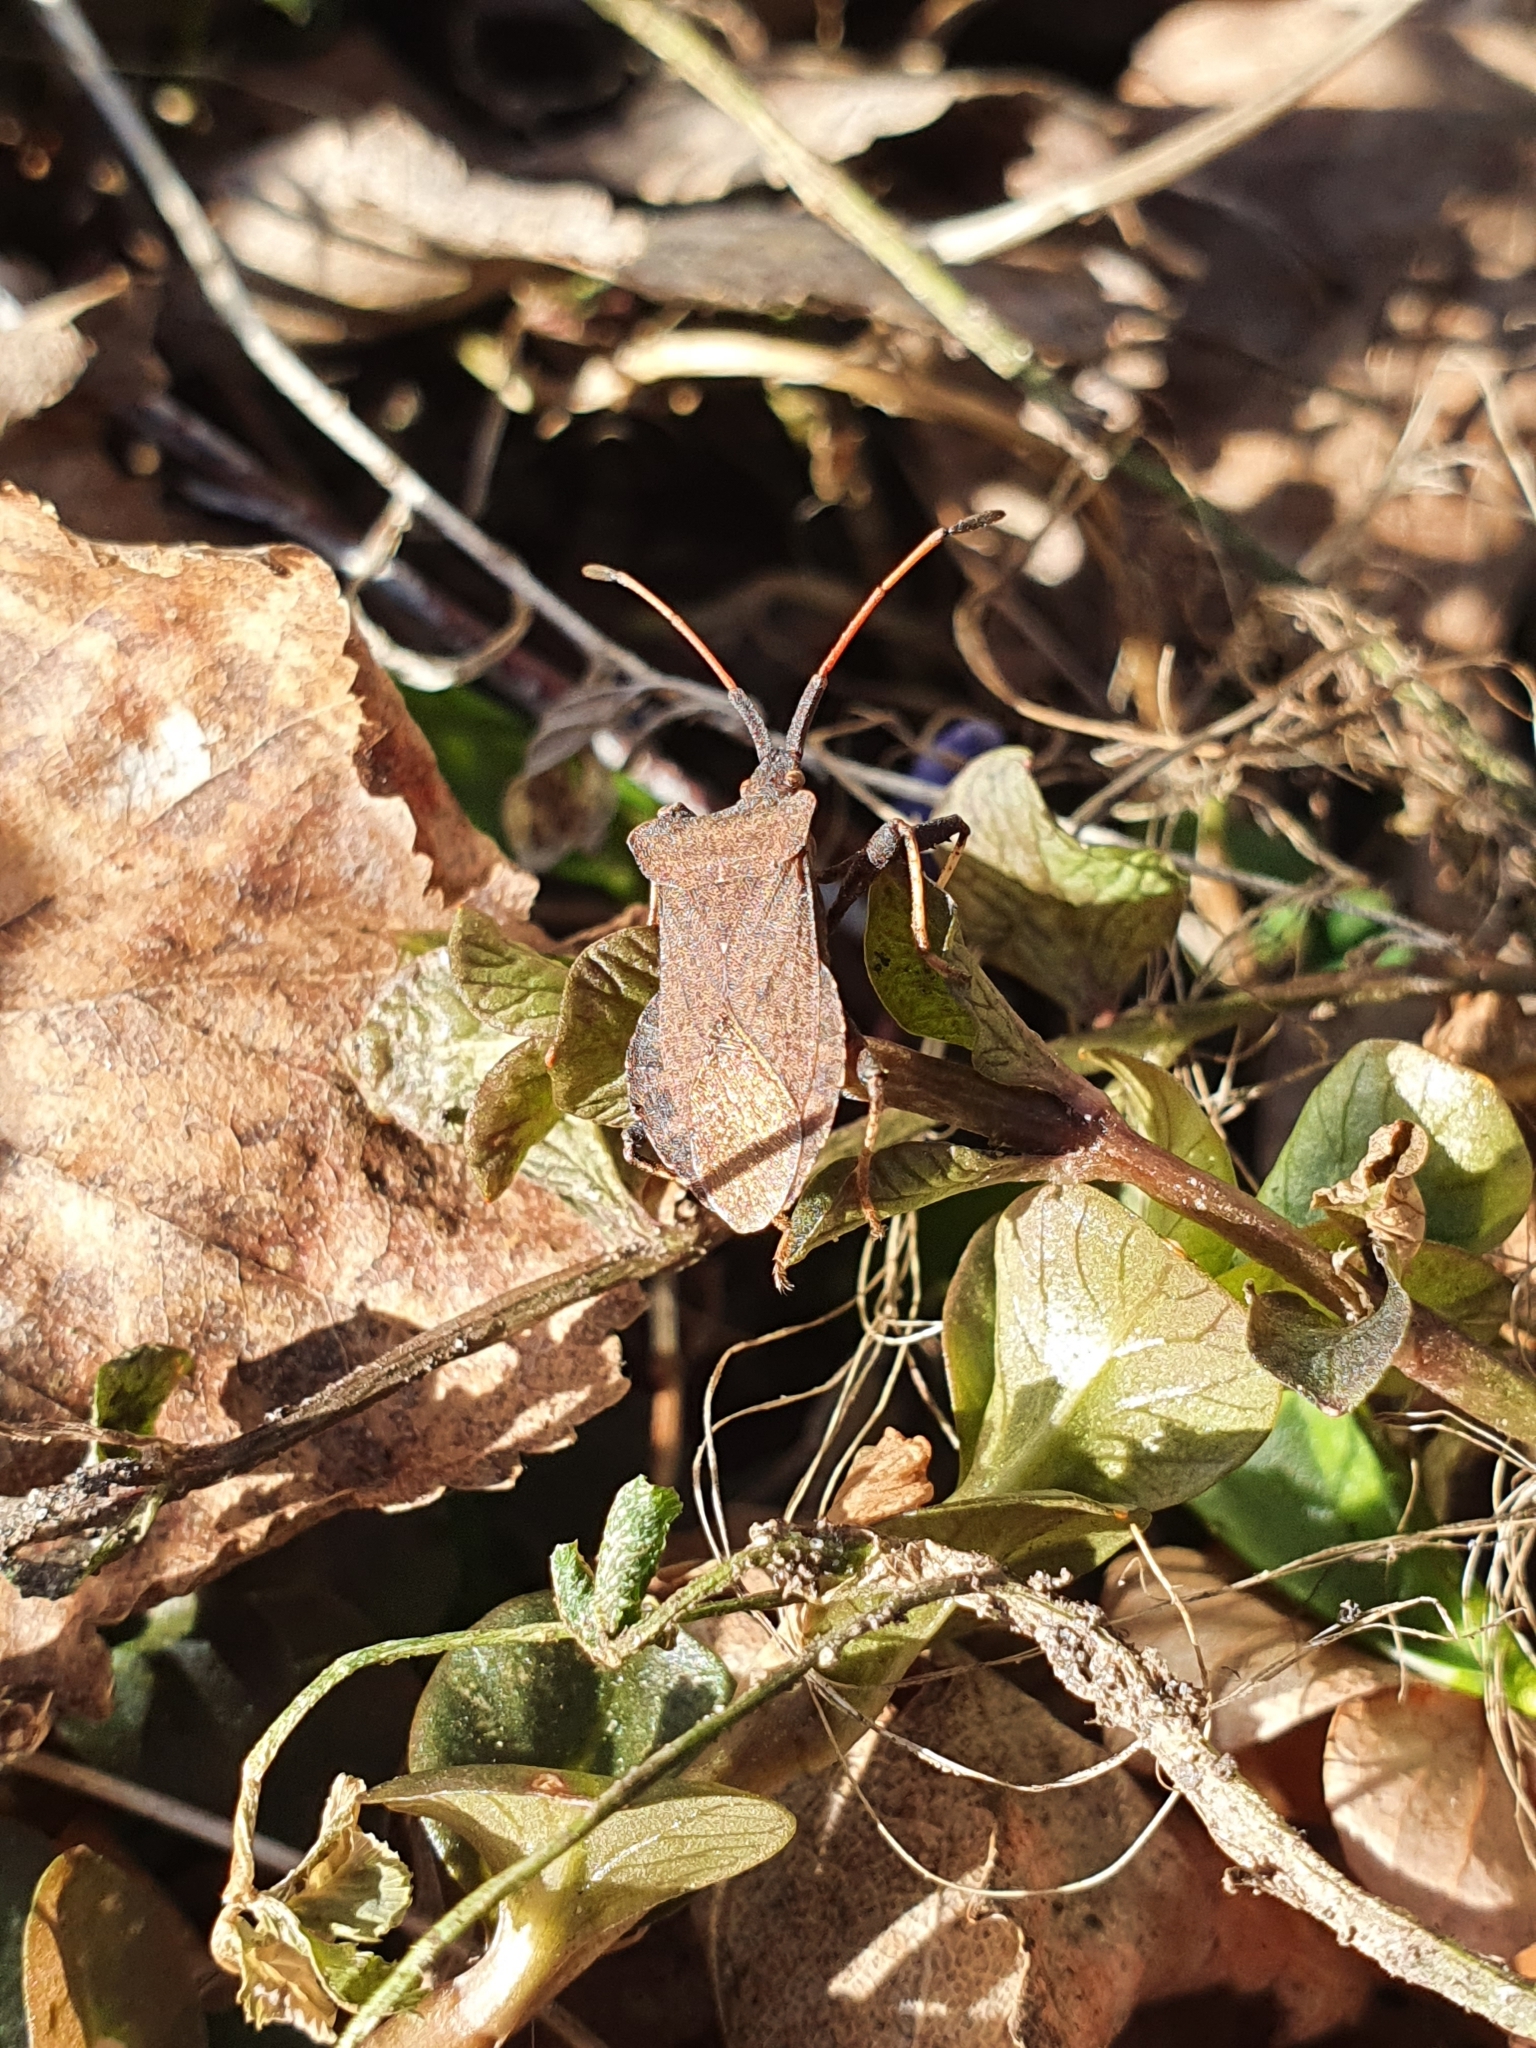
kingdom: Animalia
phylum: Arthropoda
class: Insecta
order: Hemiptera
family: Coreidae
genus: Coreus
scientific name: Coreus marginatus
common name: Dock bug
